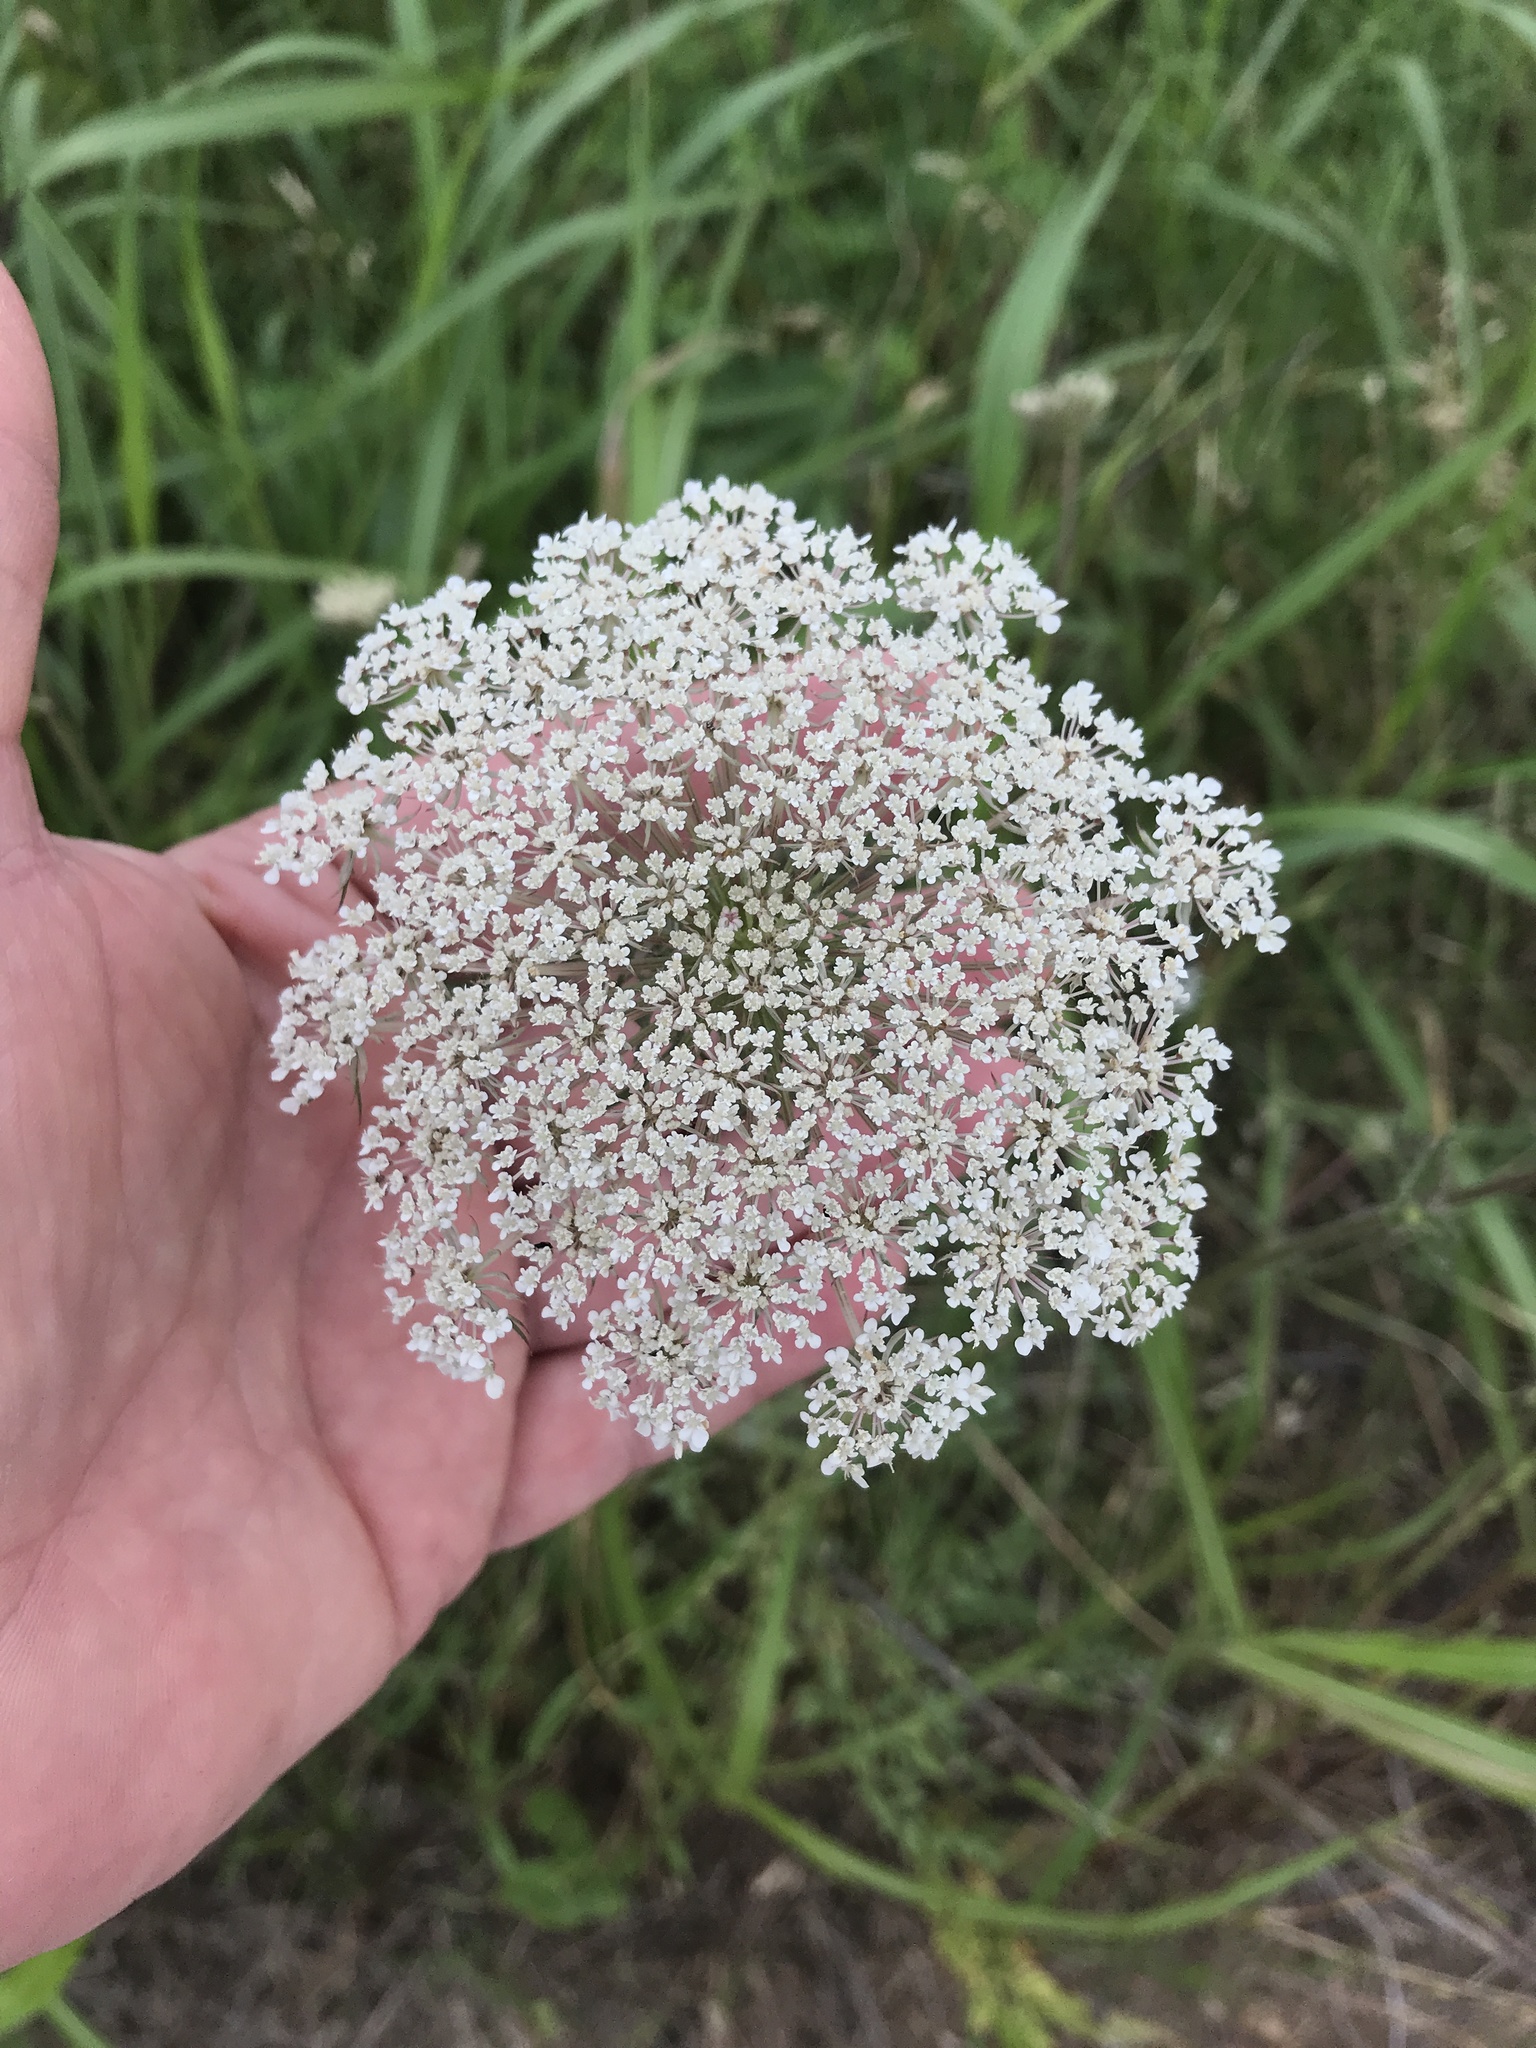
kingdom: Plantae
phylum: Tracheophyta
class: Magnoliopsida
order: Apiales
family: Apiaceae
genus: Daucus
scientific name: Daucus carota
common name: Wild carrot
